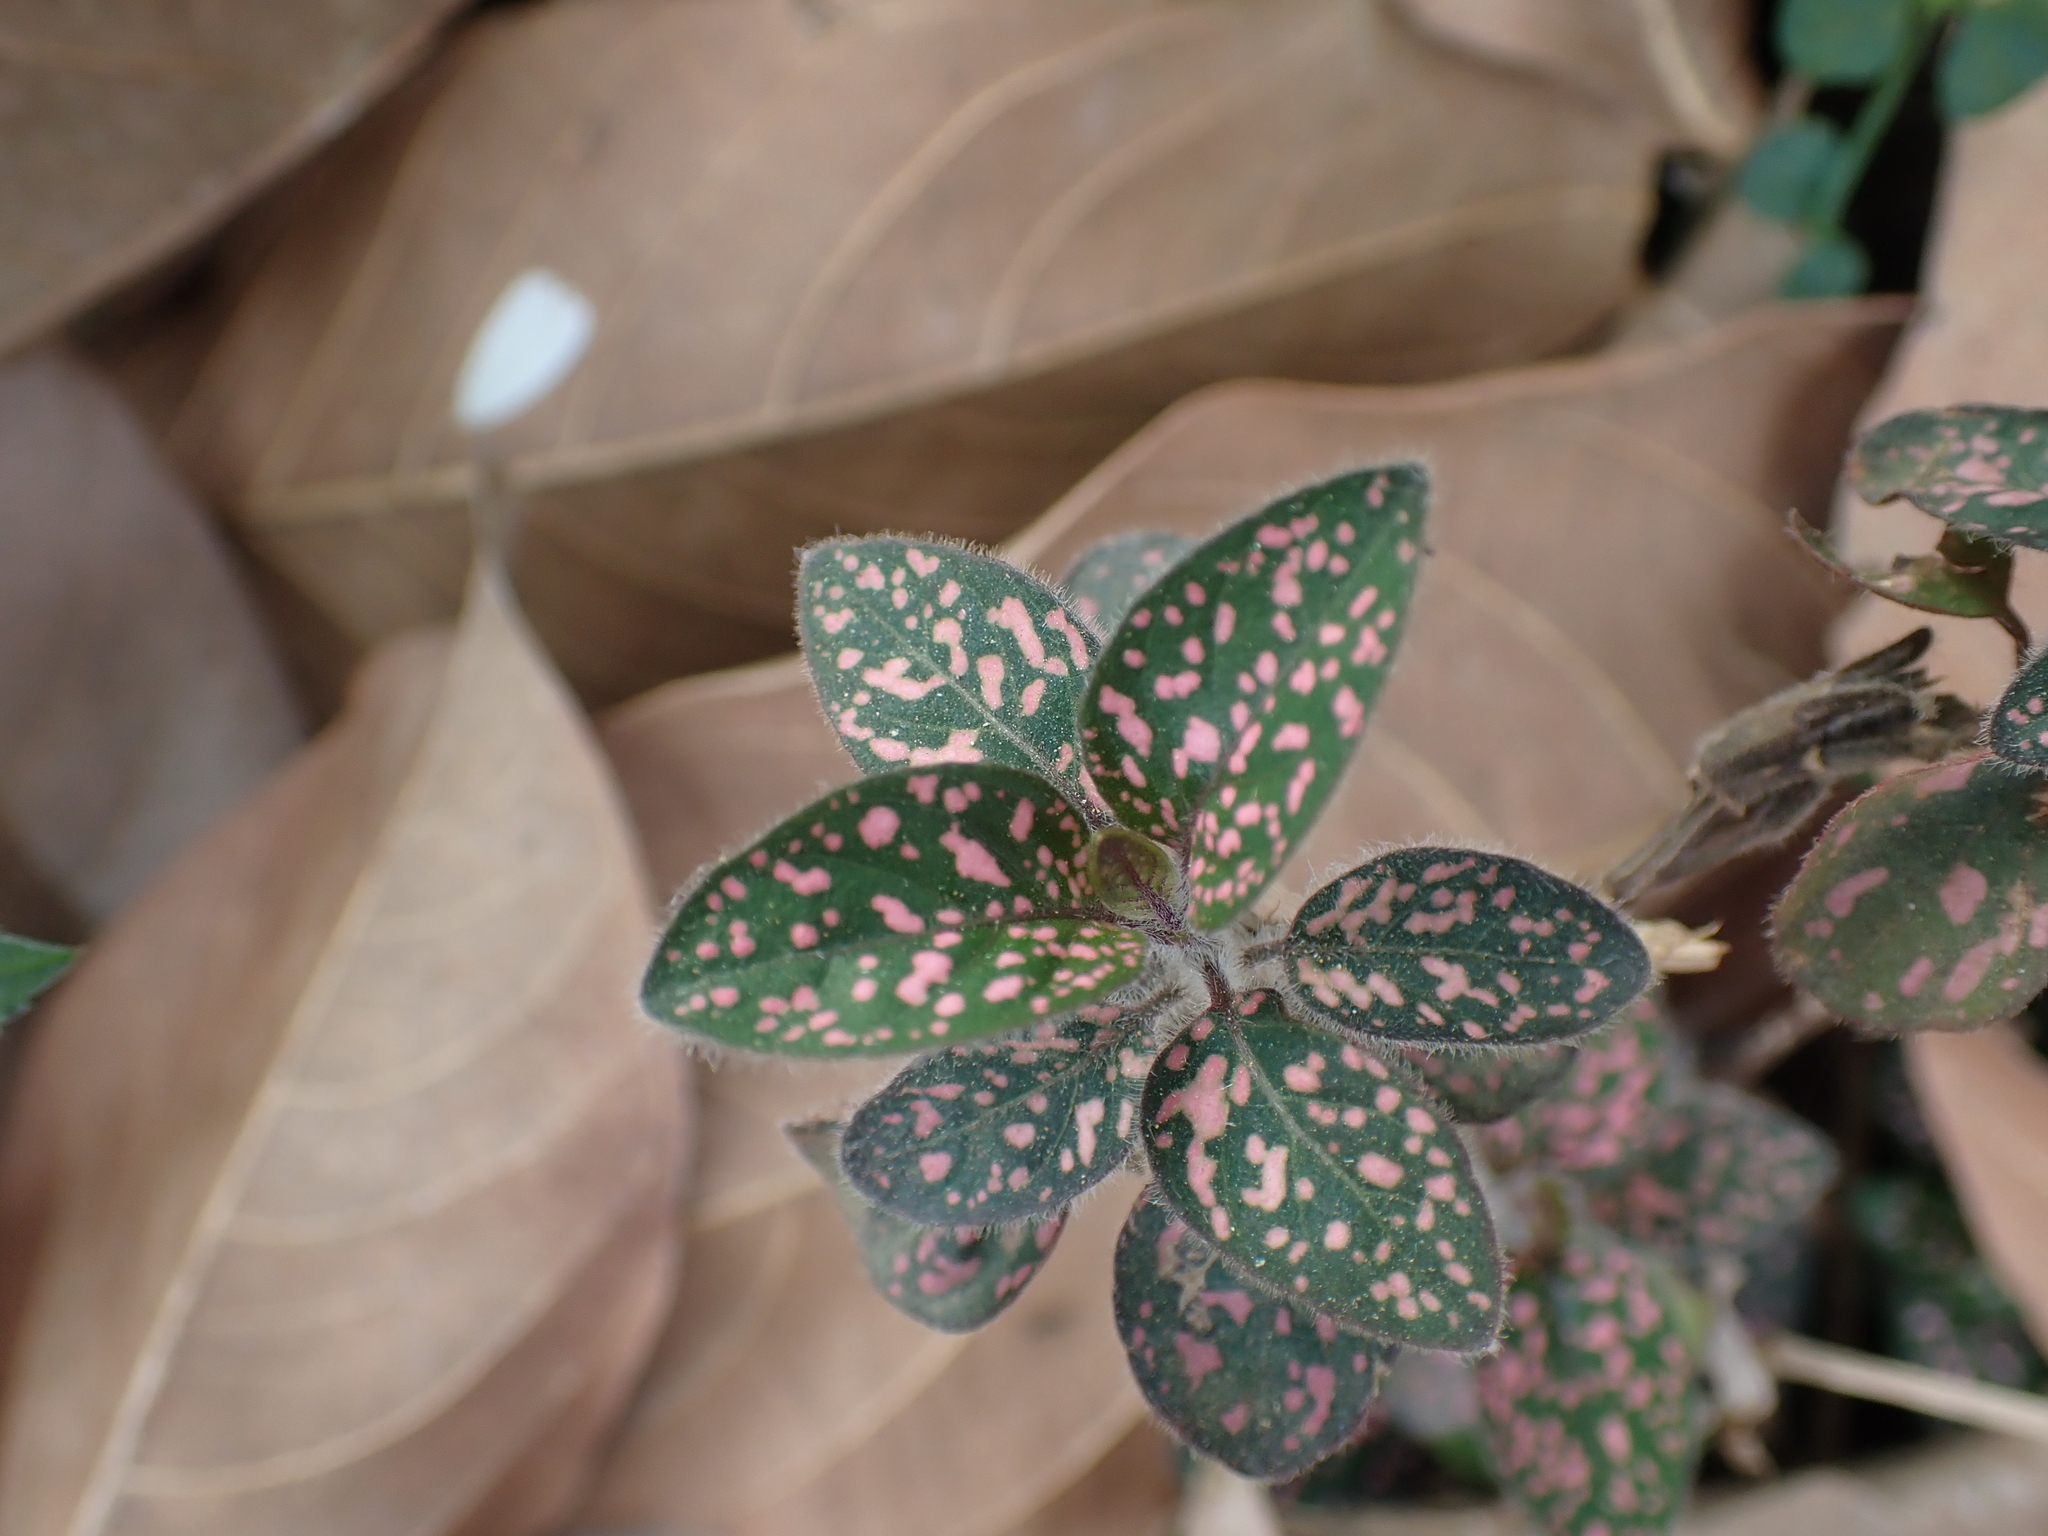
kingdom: Plantae
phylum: Tracheophyta
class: Magnoliopsida
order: Lamiales
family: Acanthaceae
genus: Hypoestes
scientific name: Hypoestes phyllostachya
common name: Polkadot-plant
